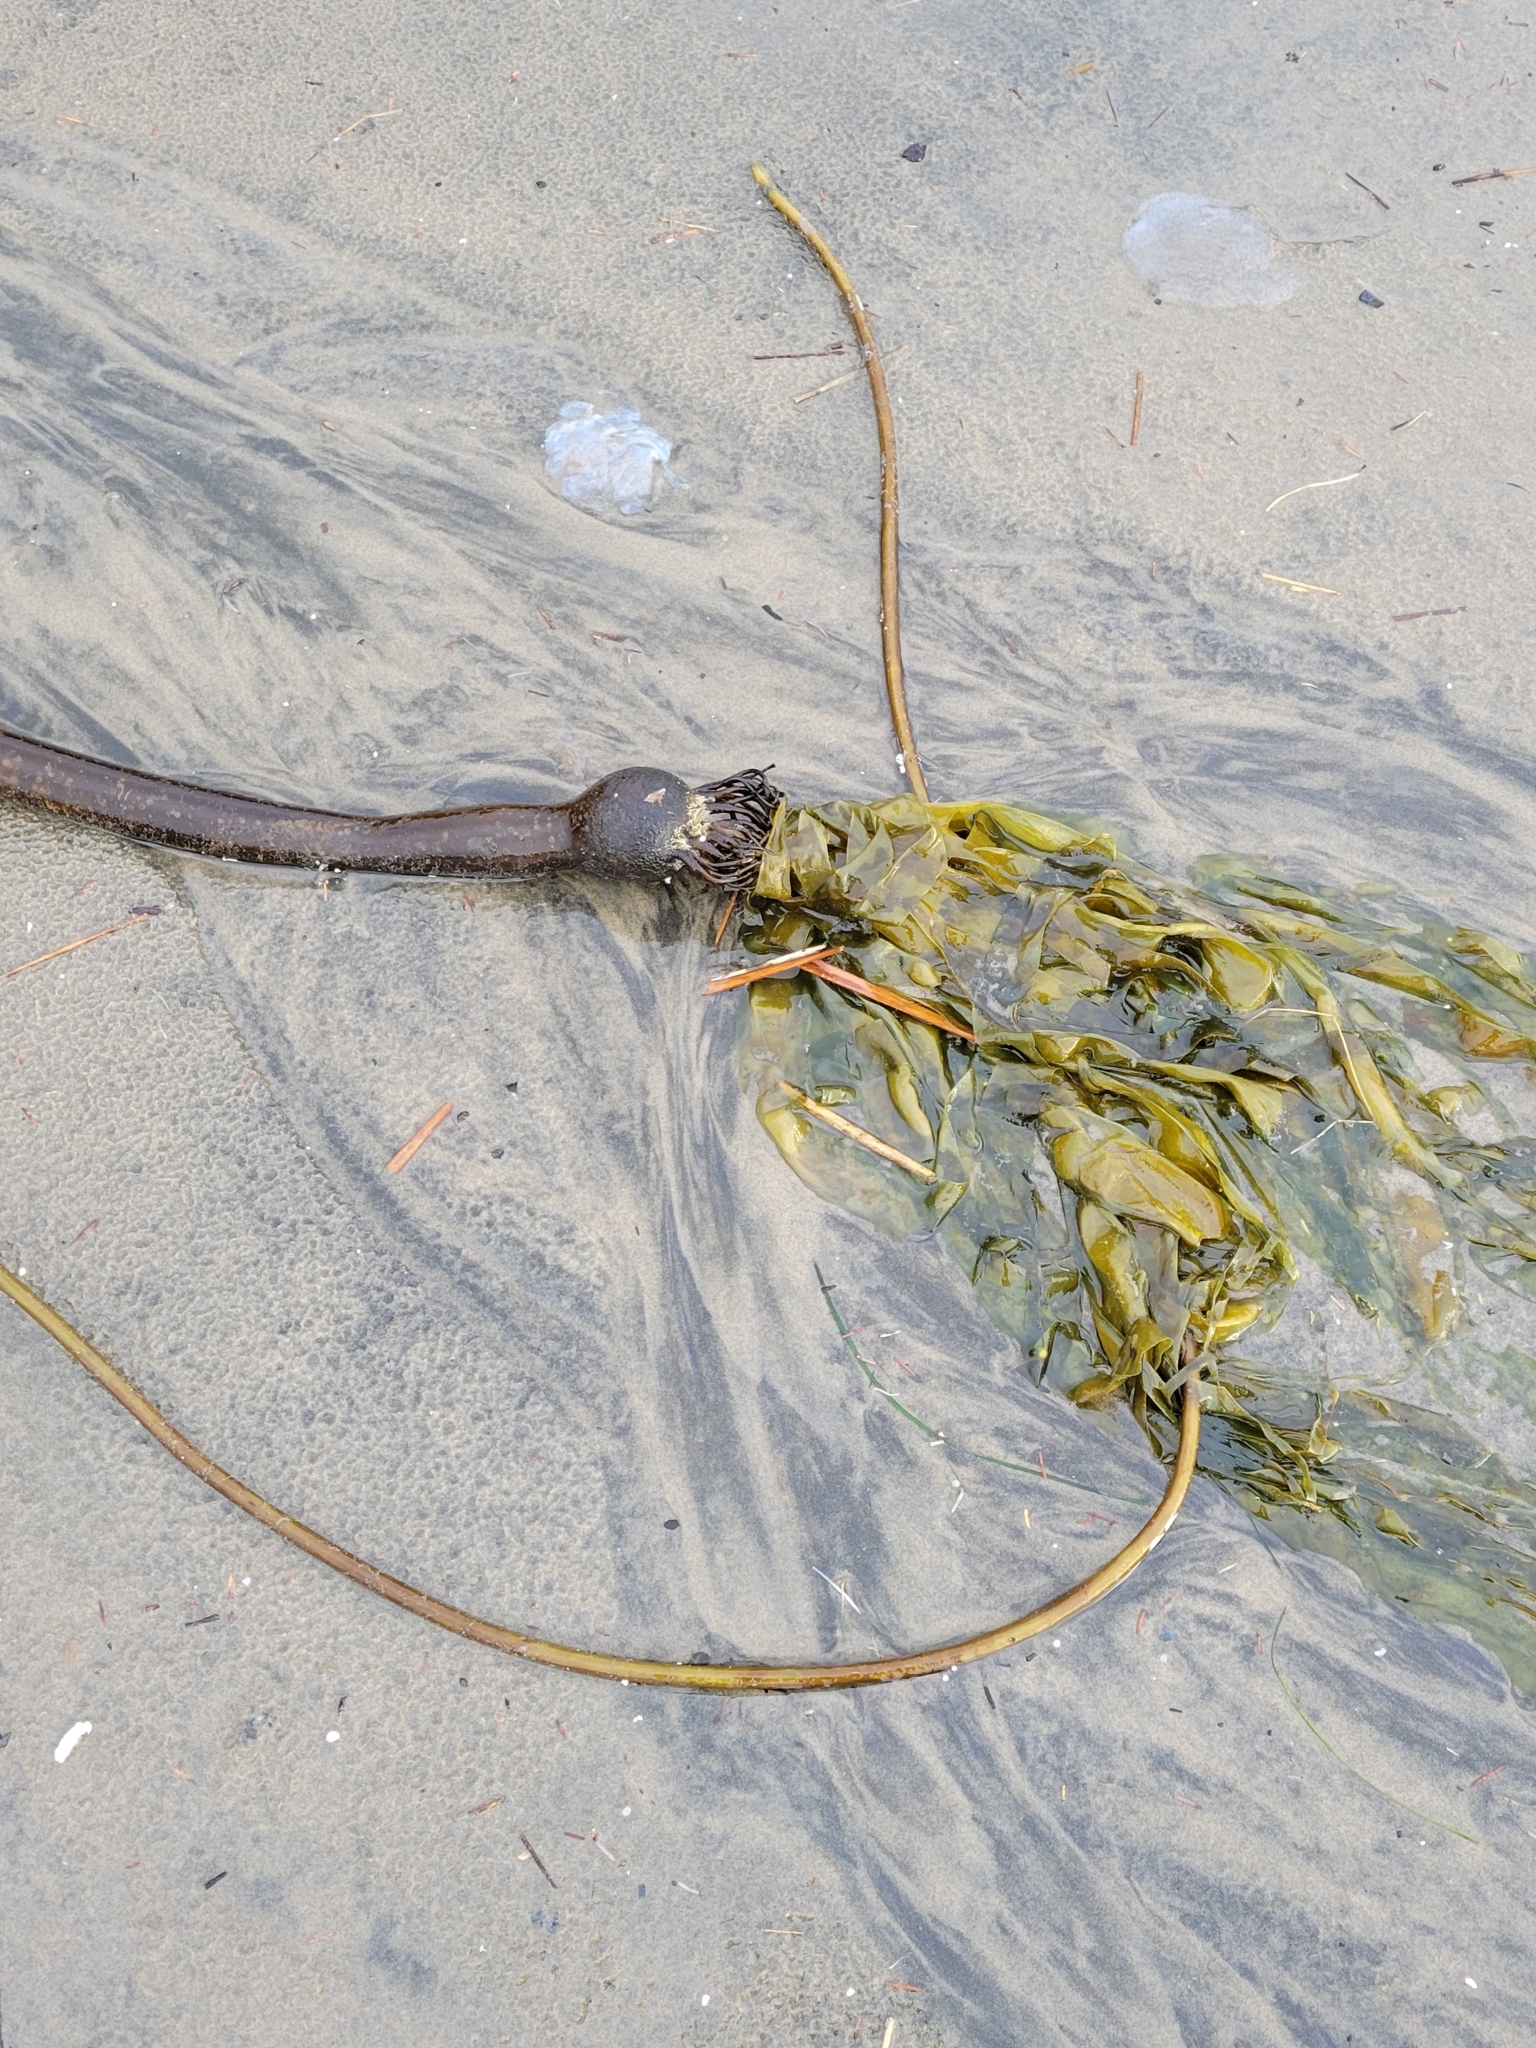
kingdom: Chromista
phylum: Ochrophyta
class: Phaeophyceae
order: Laminariales
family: Laminariaceae
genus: Nereocystis
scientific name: Nereocystis luetkeana
